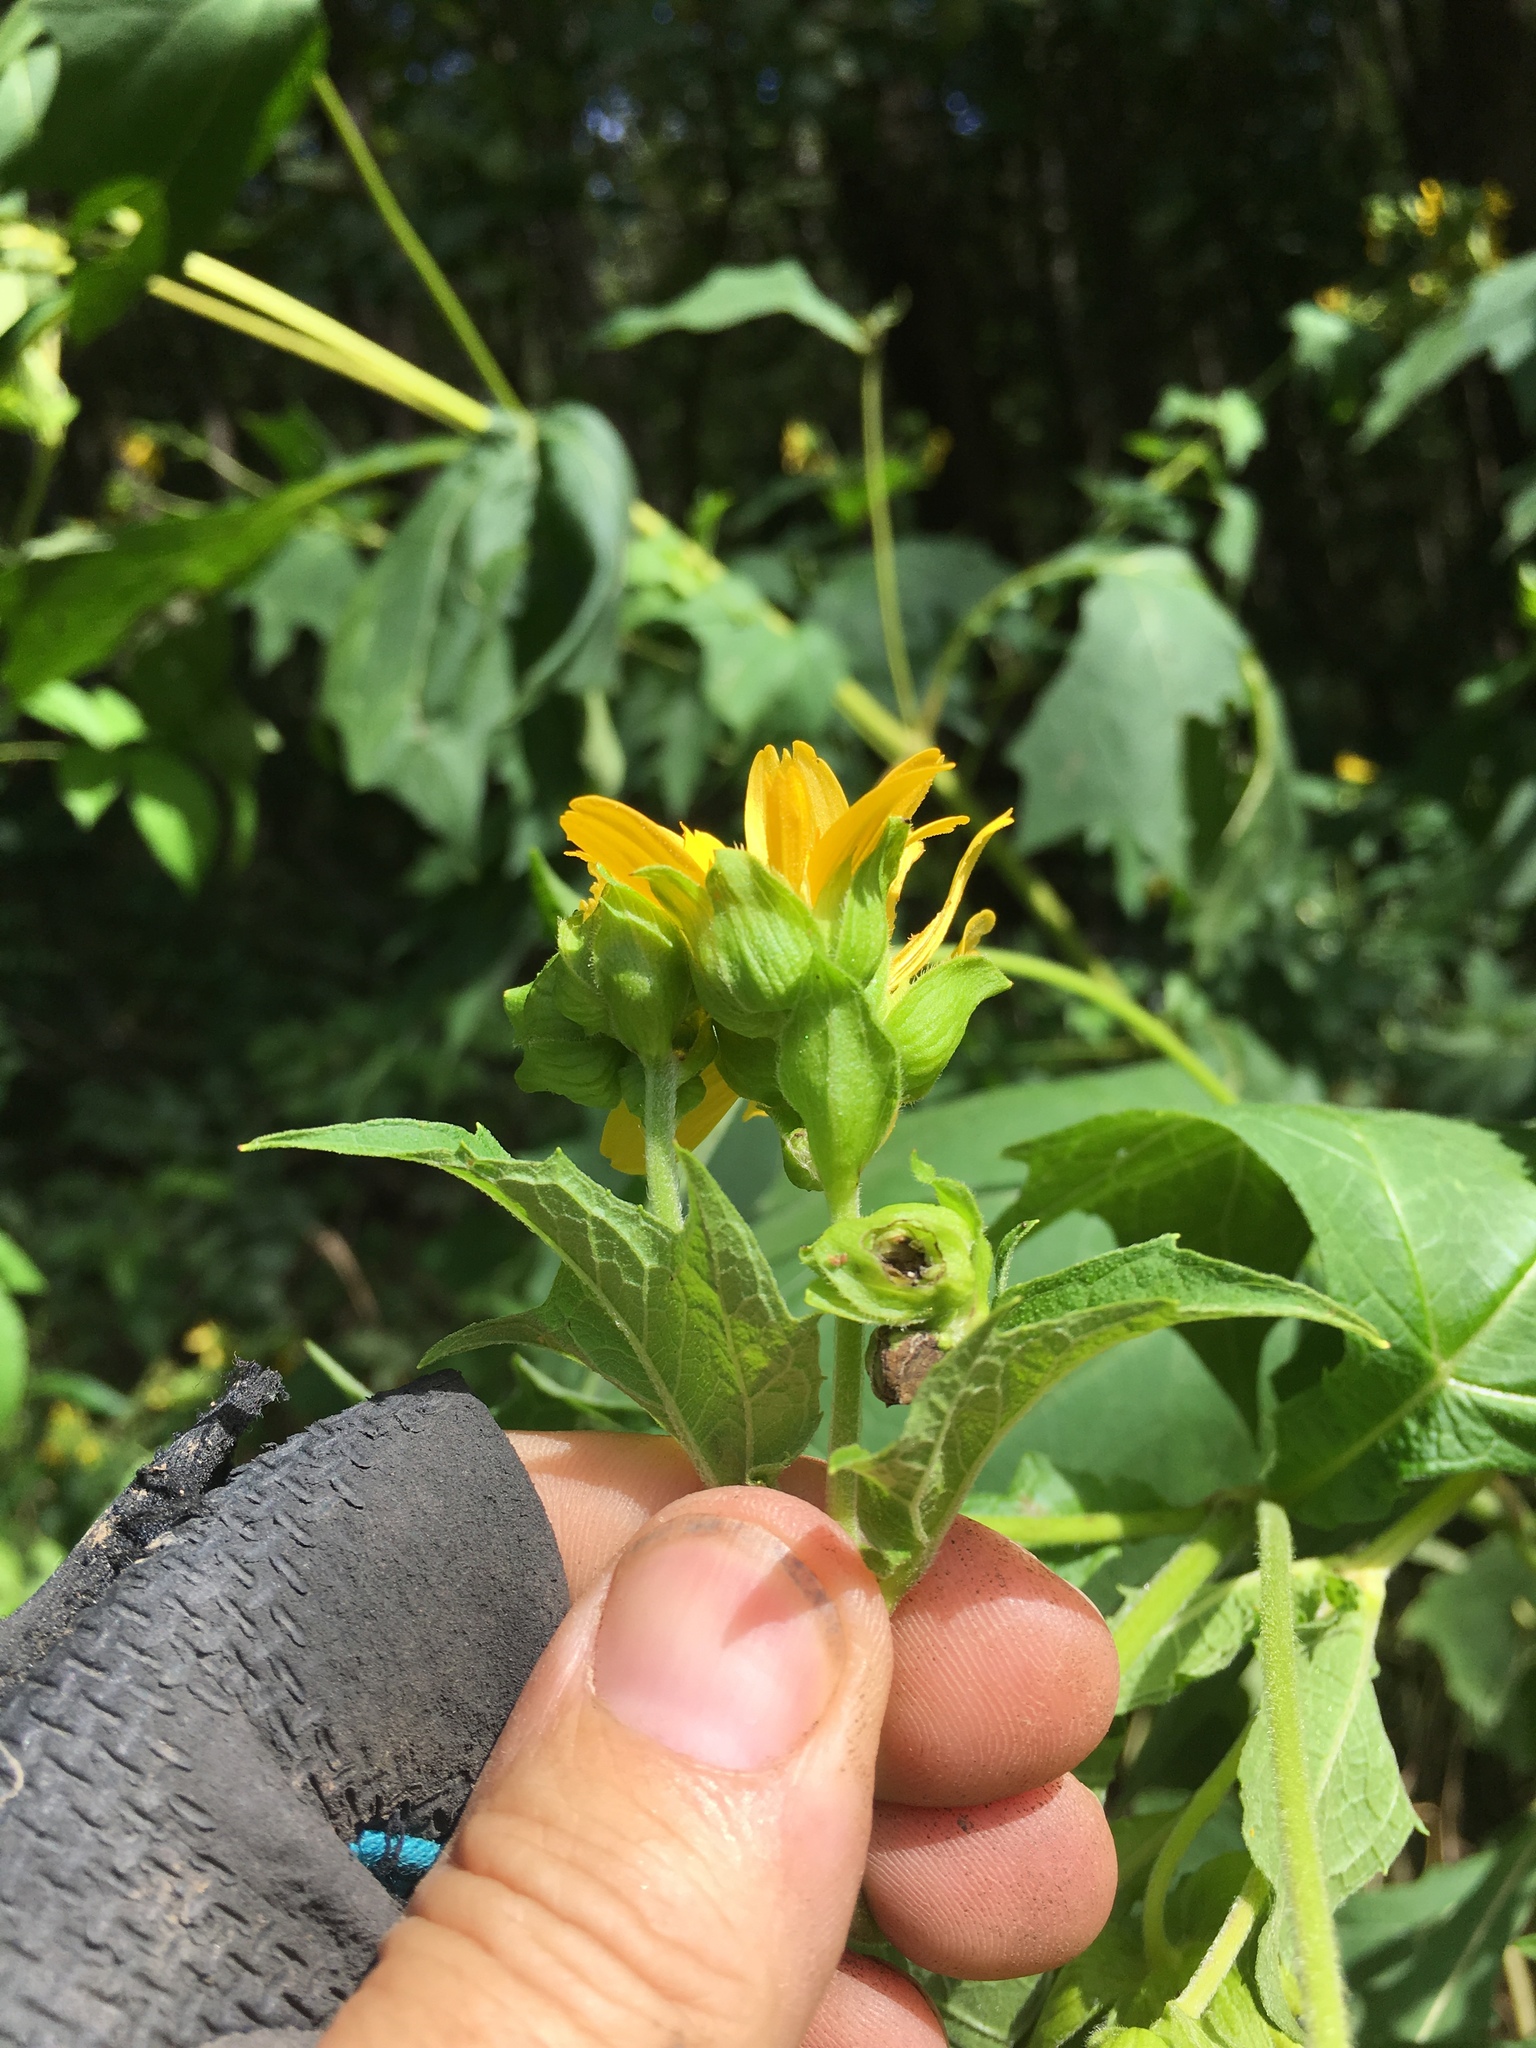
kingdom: Plantae
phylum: Tracheophyta
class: Magnoliopsida
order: Asterales
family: Asteraceae
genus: Smallanthus
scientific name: Smallanthus uvedalia
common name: Bear's-foot
